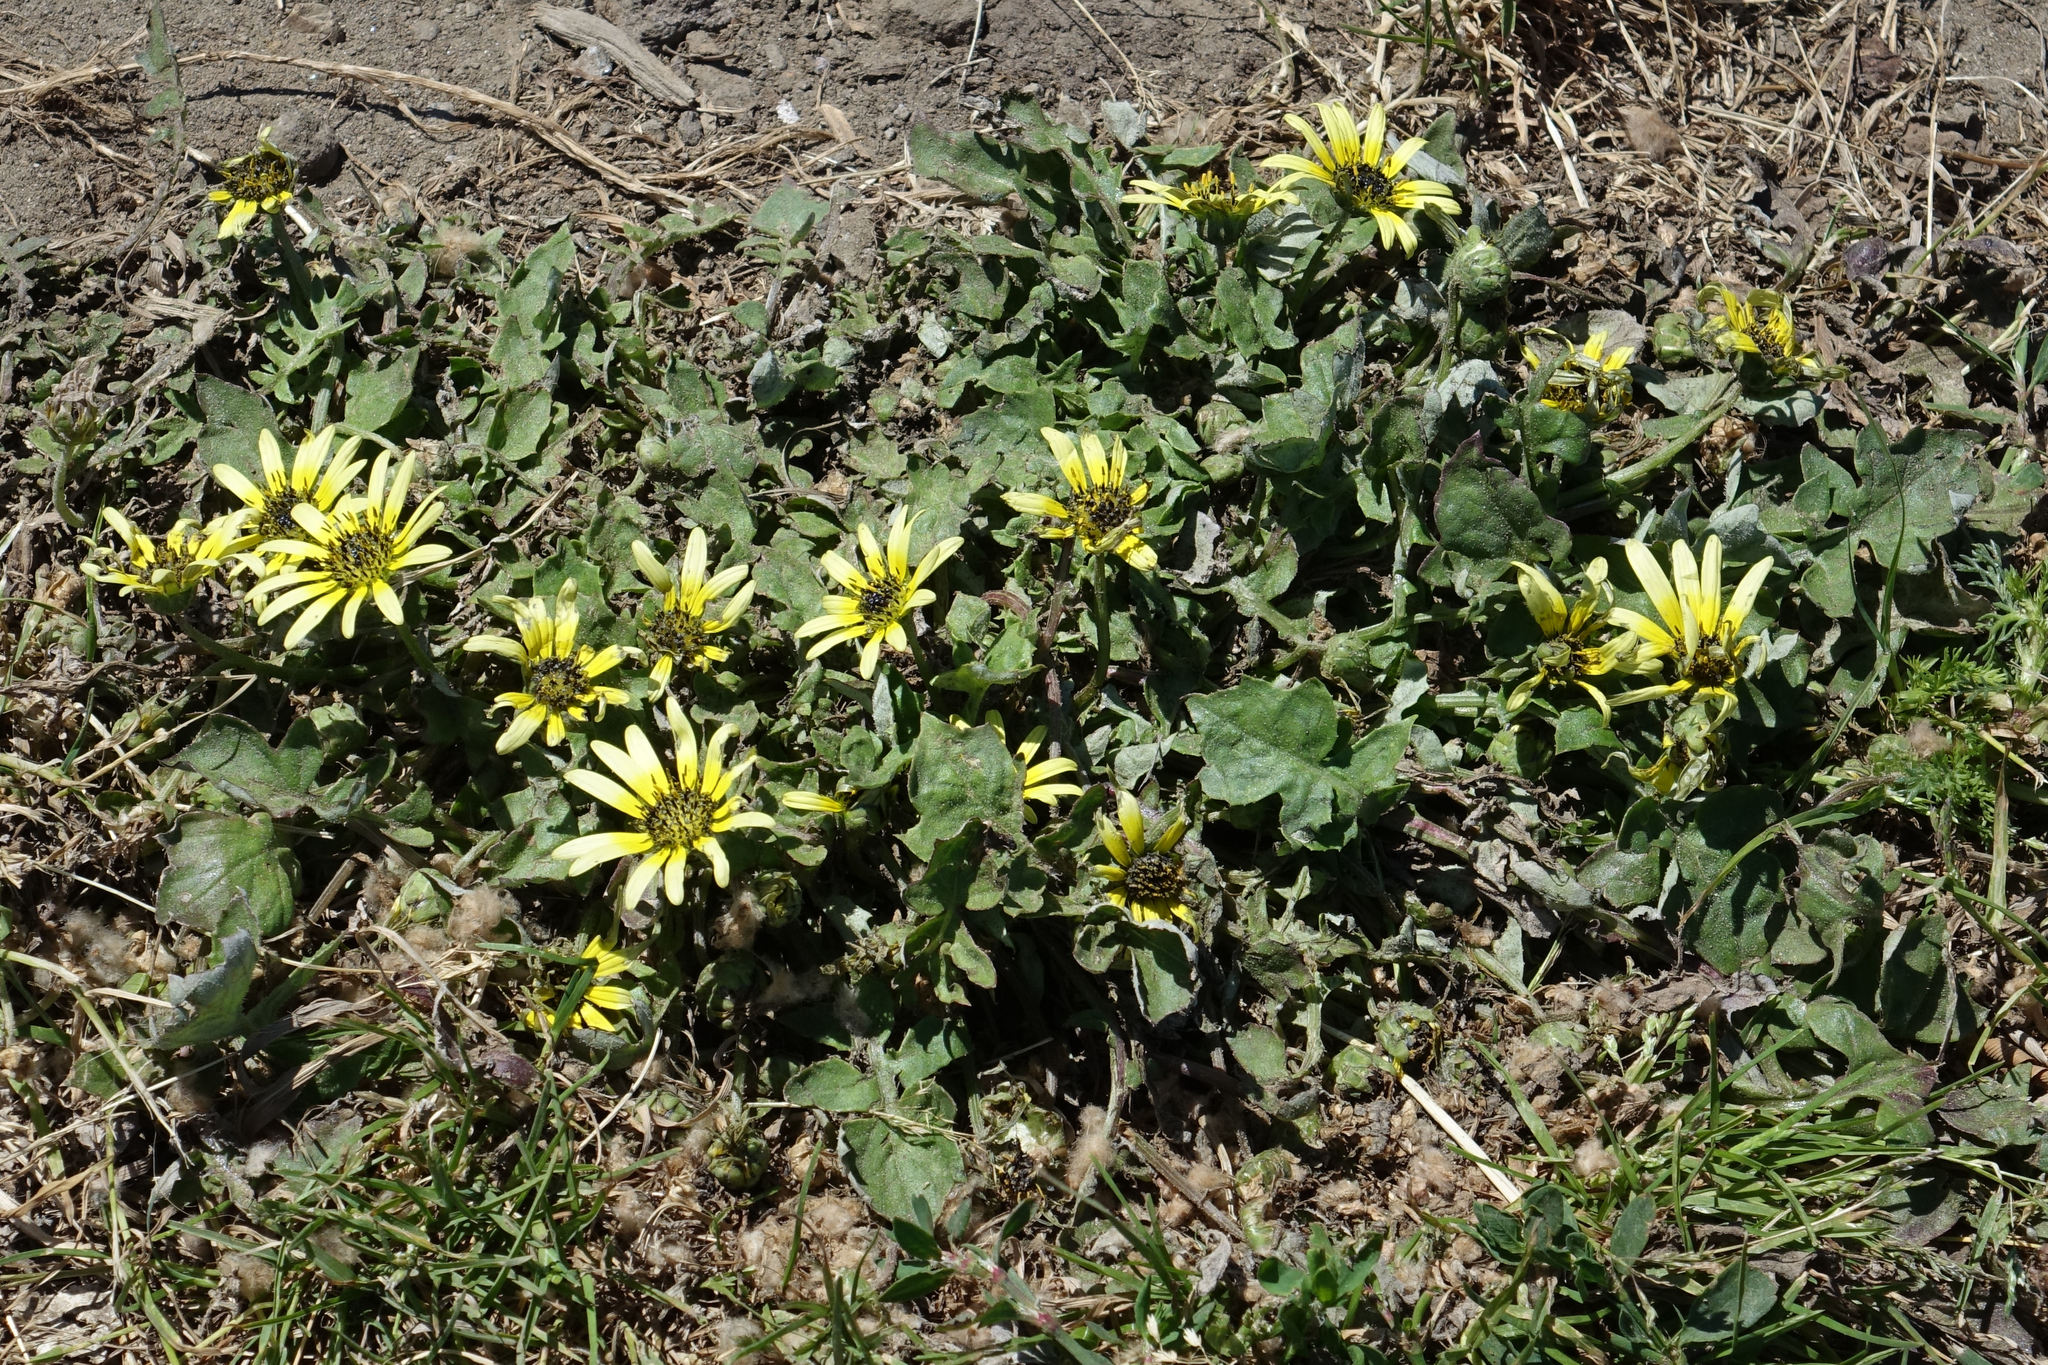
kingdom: Plantae
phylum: Tracheophyta
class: Magnoliopsida
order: Asterales
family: Asteraceae
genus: Arctotheca
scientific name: Arctotheca calendula
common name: Capeweed
